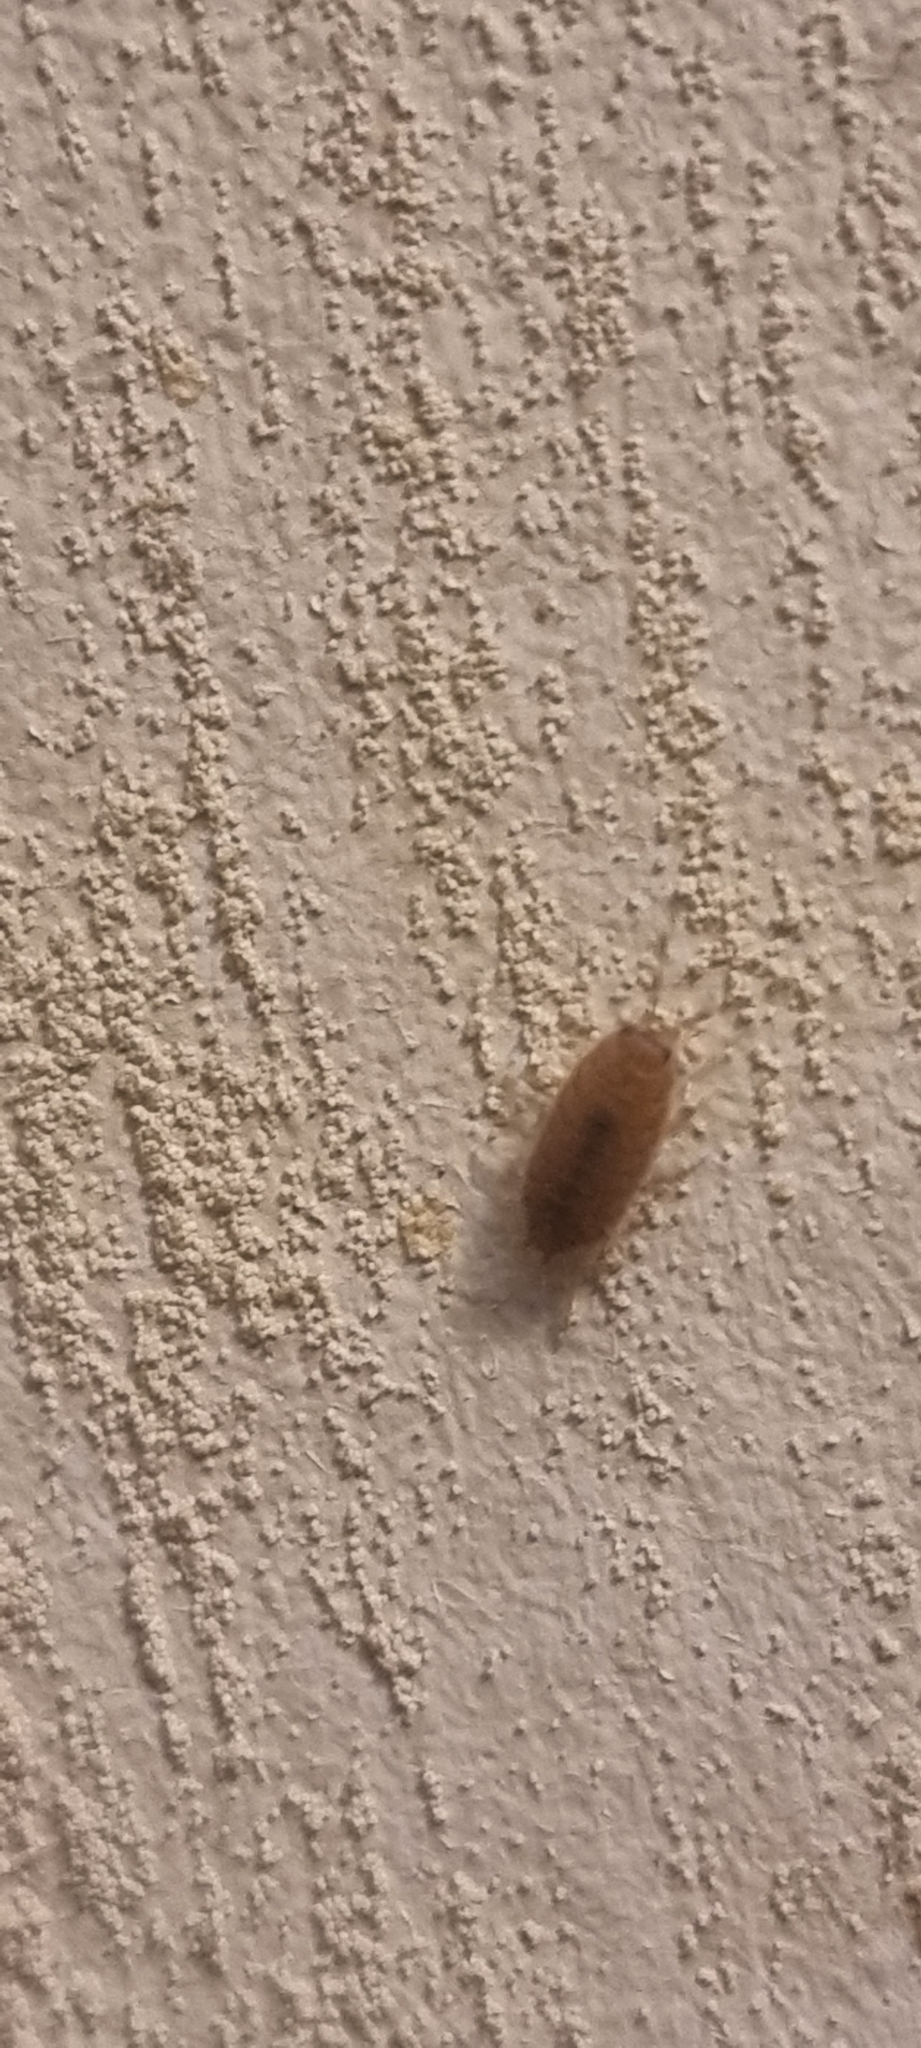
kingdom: Animalia
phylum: Arthropoda
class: Malacostraca
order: Isopoda
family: Porcellionidae
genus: Porcellionides
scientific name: Porcellionides pruinosus
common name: Plum woodlouse
